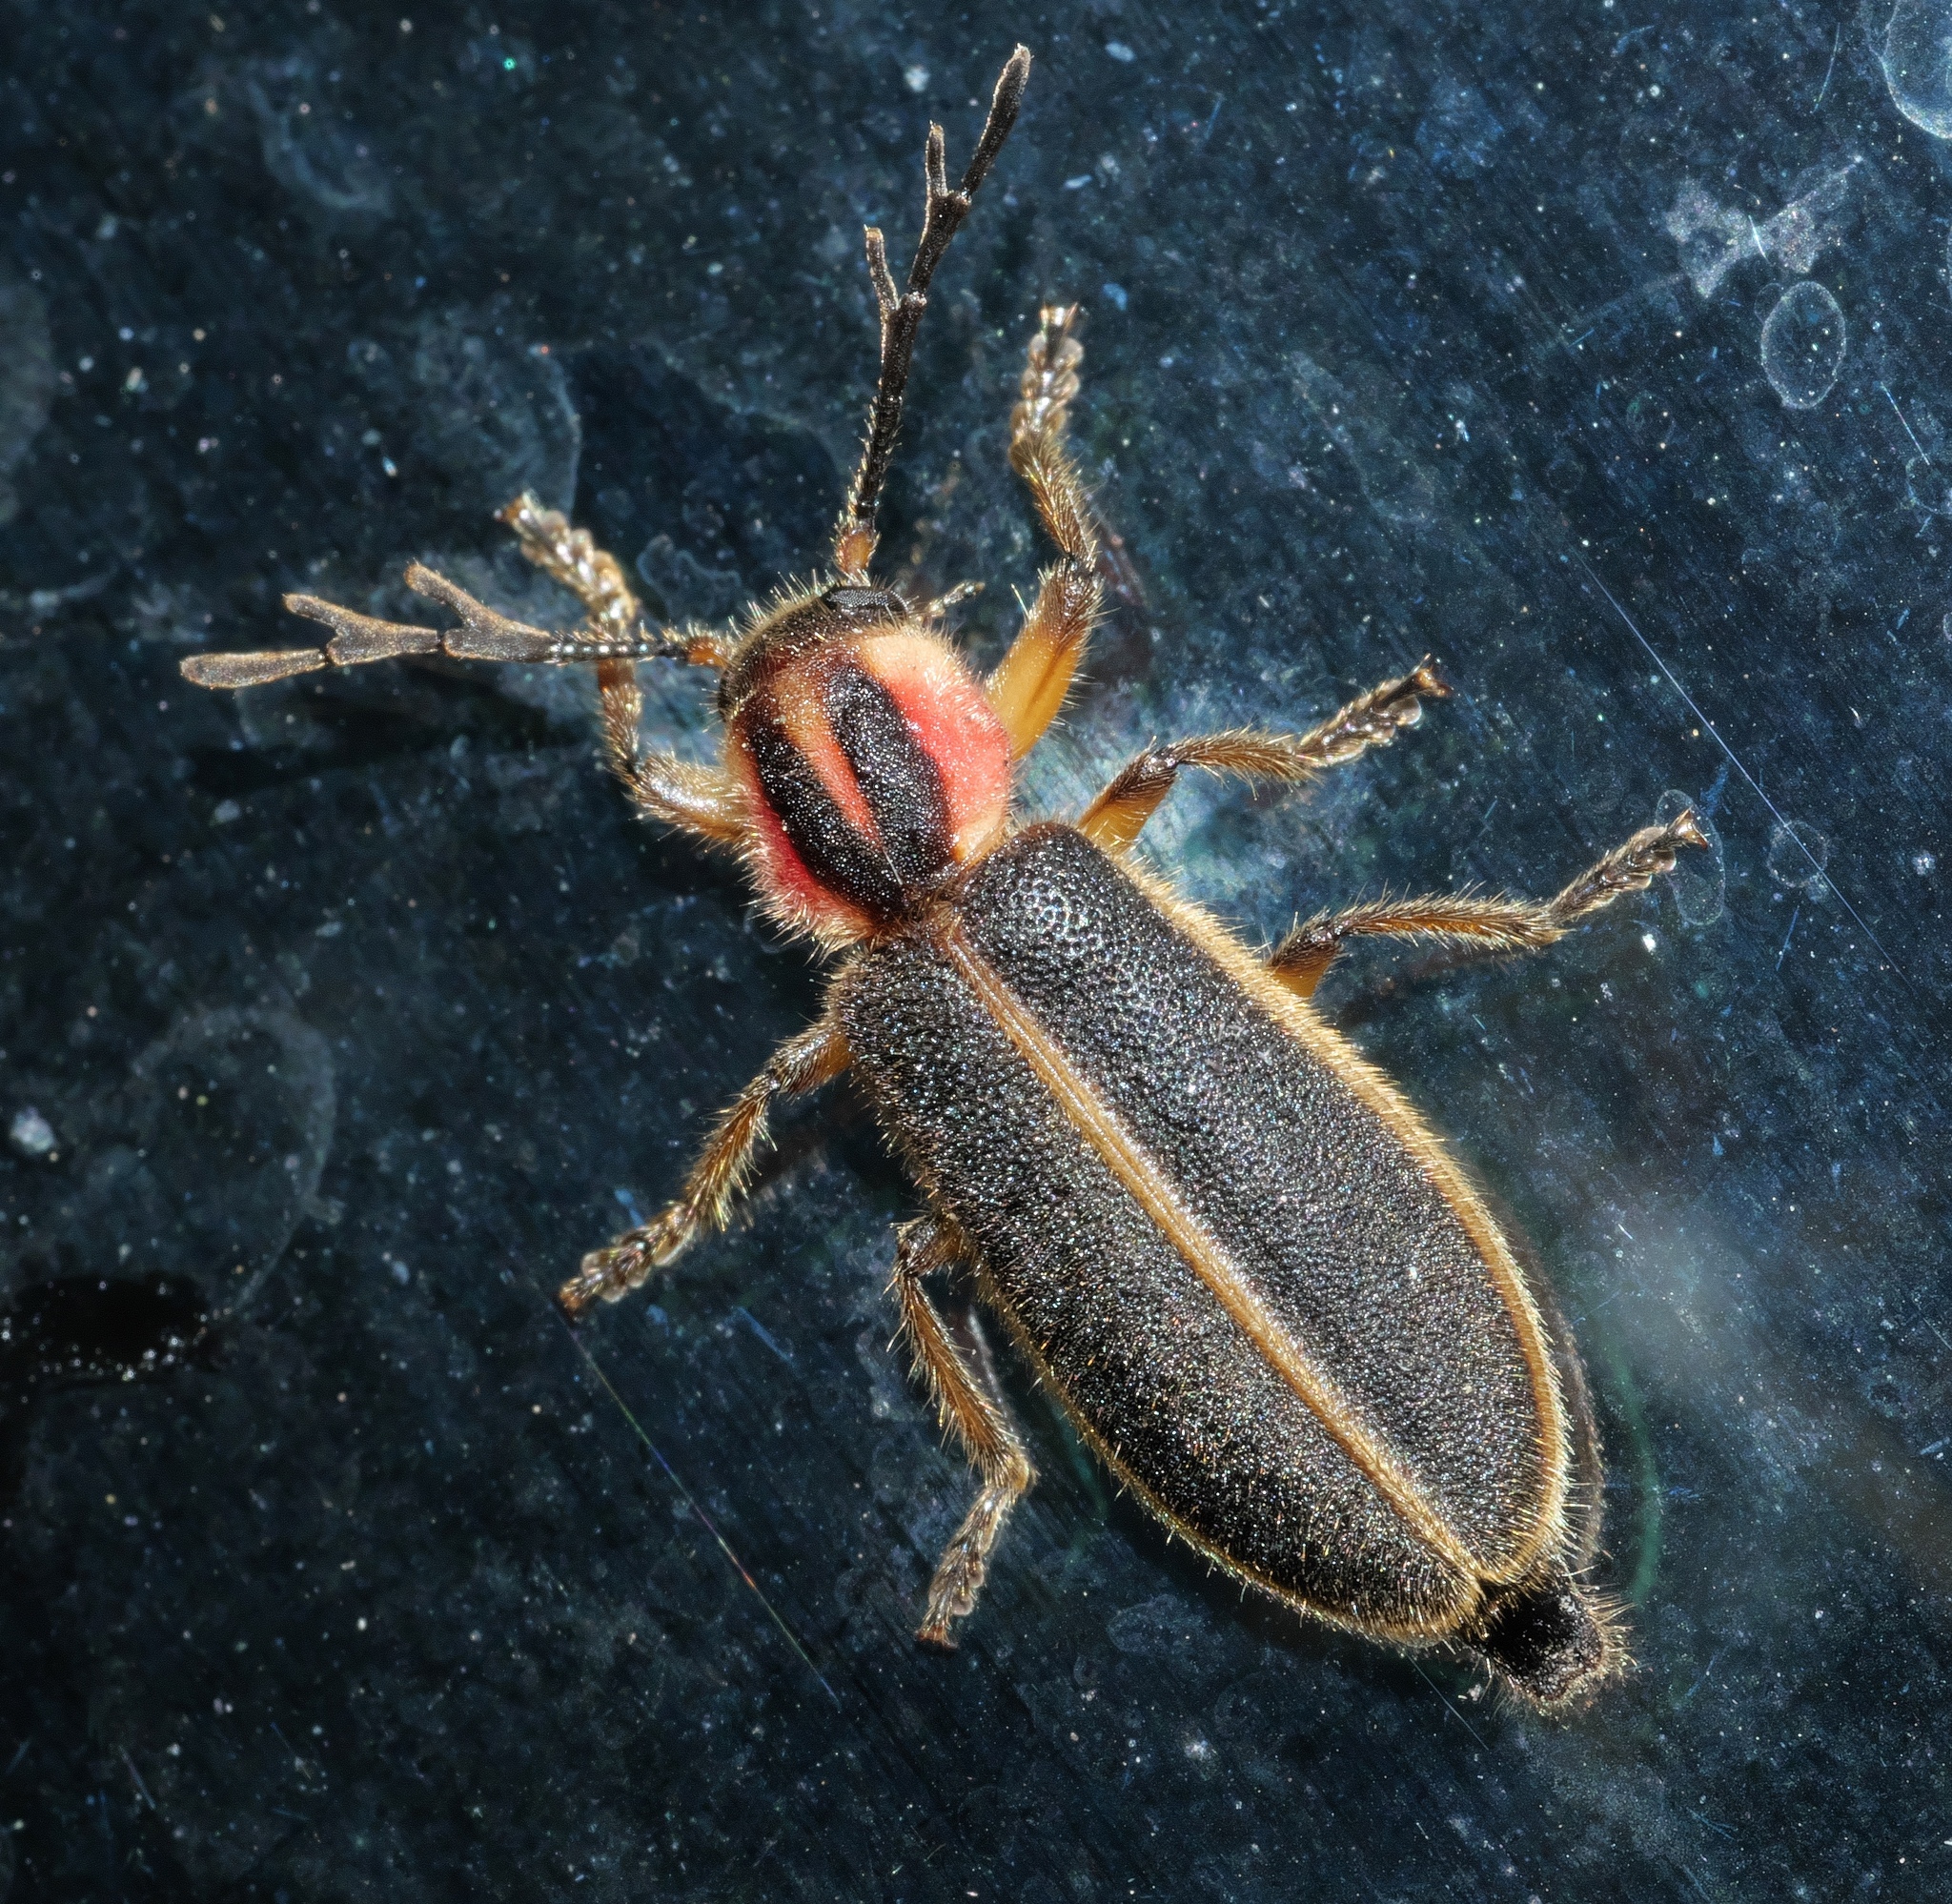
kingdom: Animalia
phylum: Arthropoda
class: Insecta
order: Coleoptera
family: Cleridae
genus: Chariessa
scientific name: Chariessa pilosa
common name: Pilose checkered beetle
